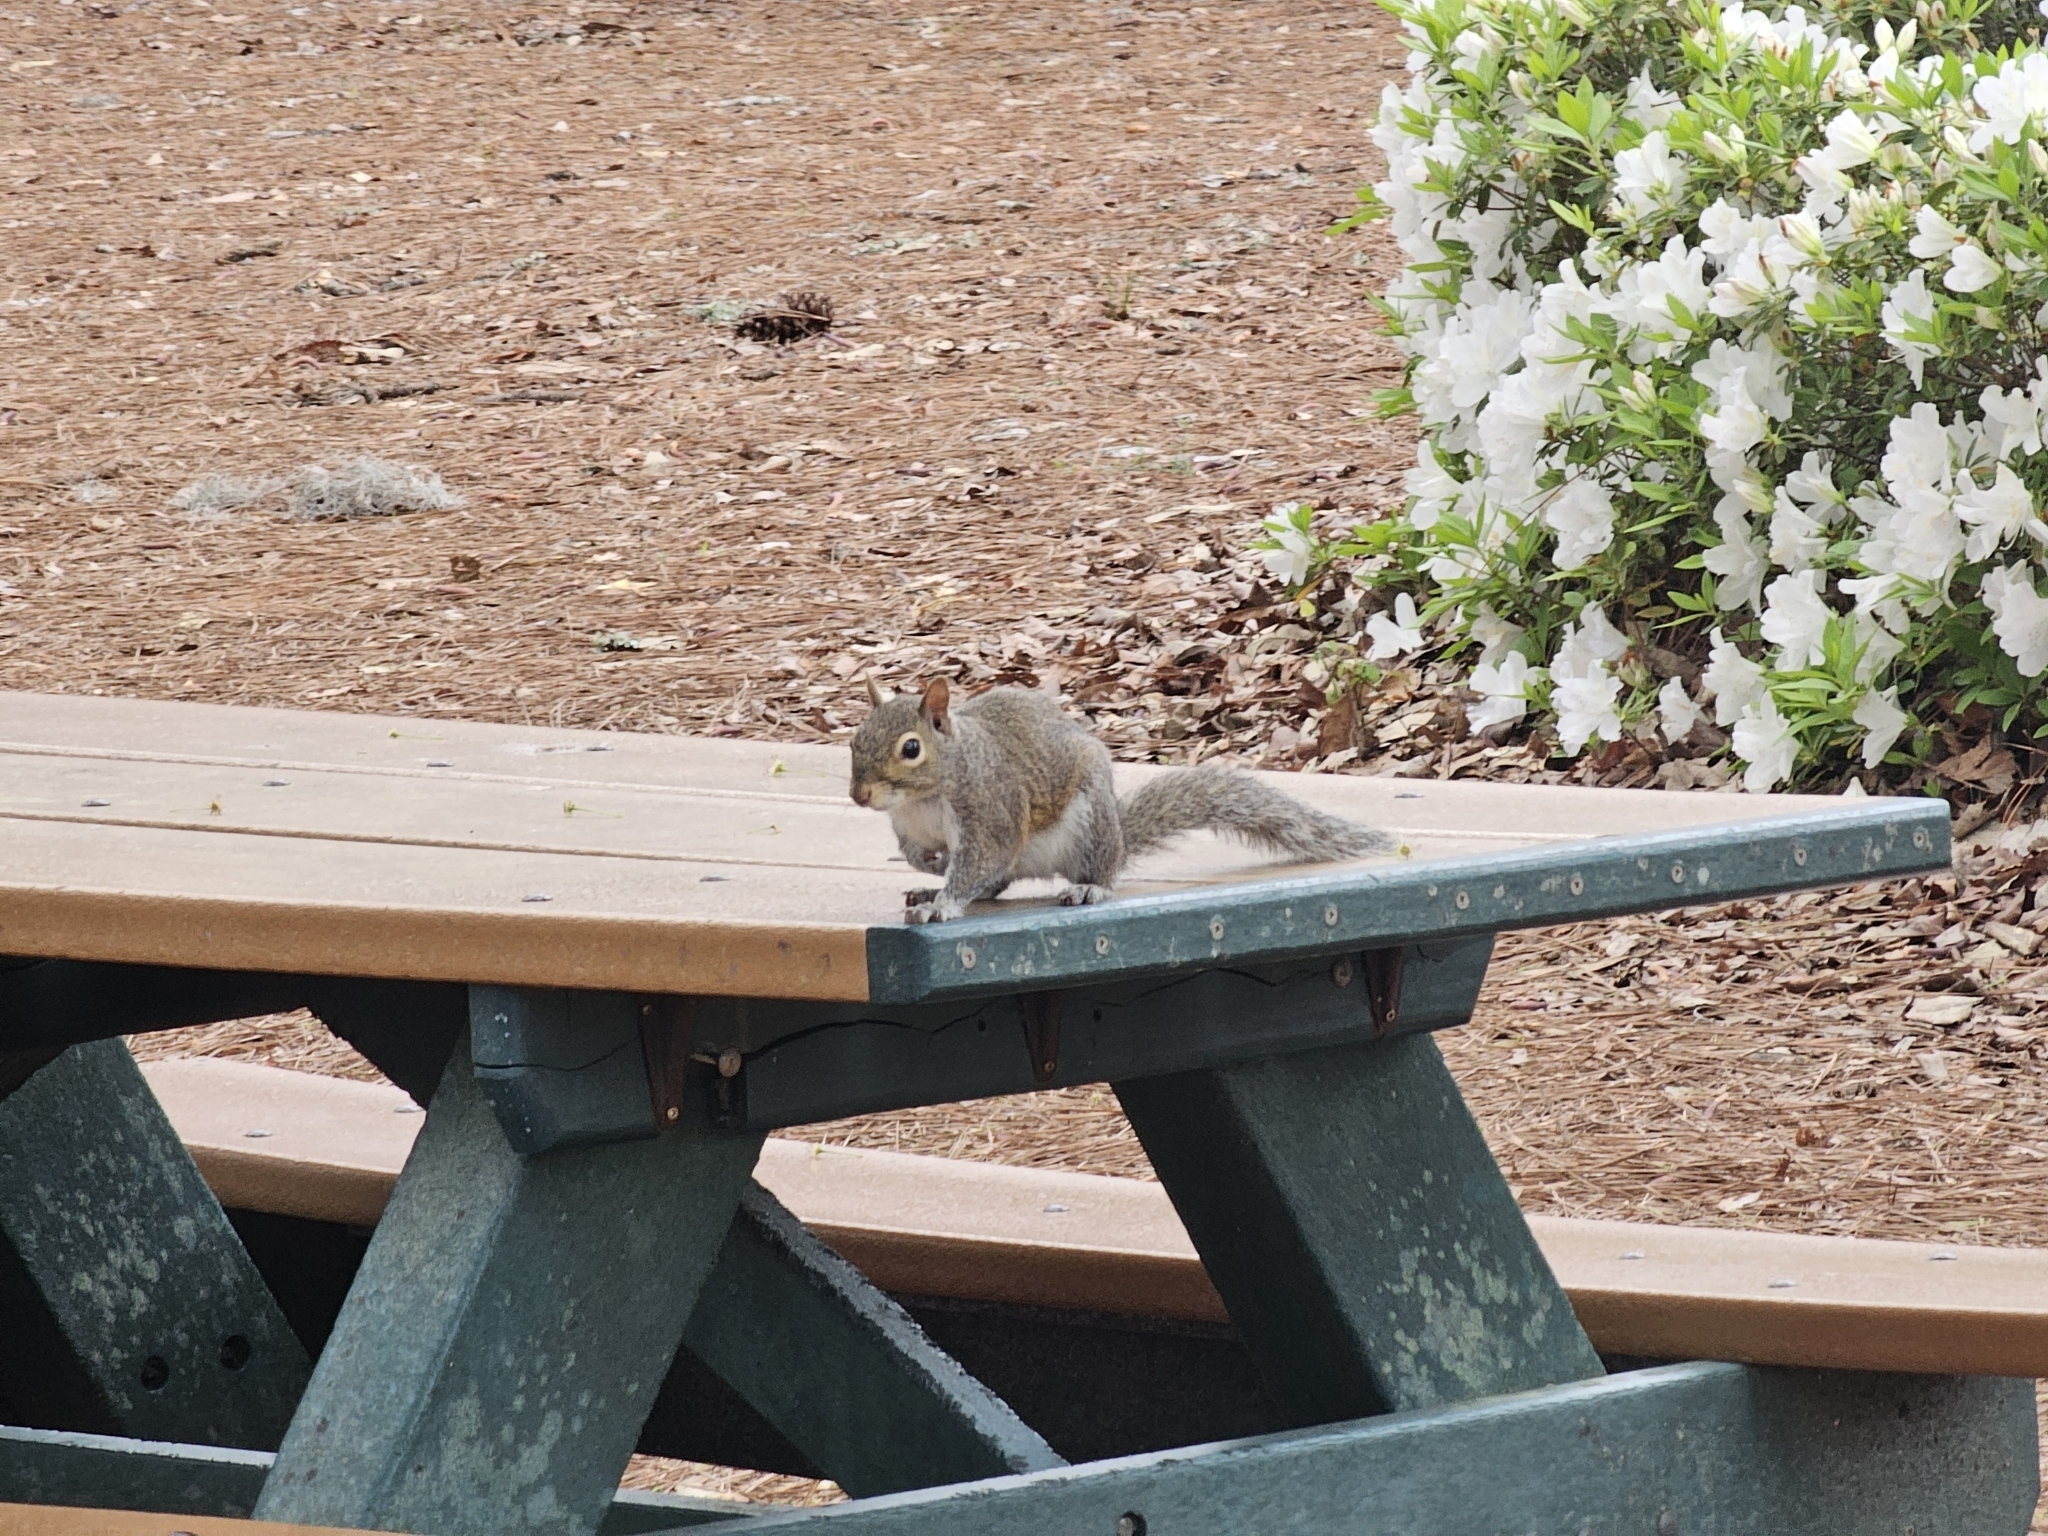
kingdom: Animalia
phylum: Chordata
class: Mammalia
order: Rodentia
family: Sciuridae
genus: Sciurus
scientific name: Sciurus carolinensis
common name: Eastern gray squirrel
